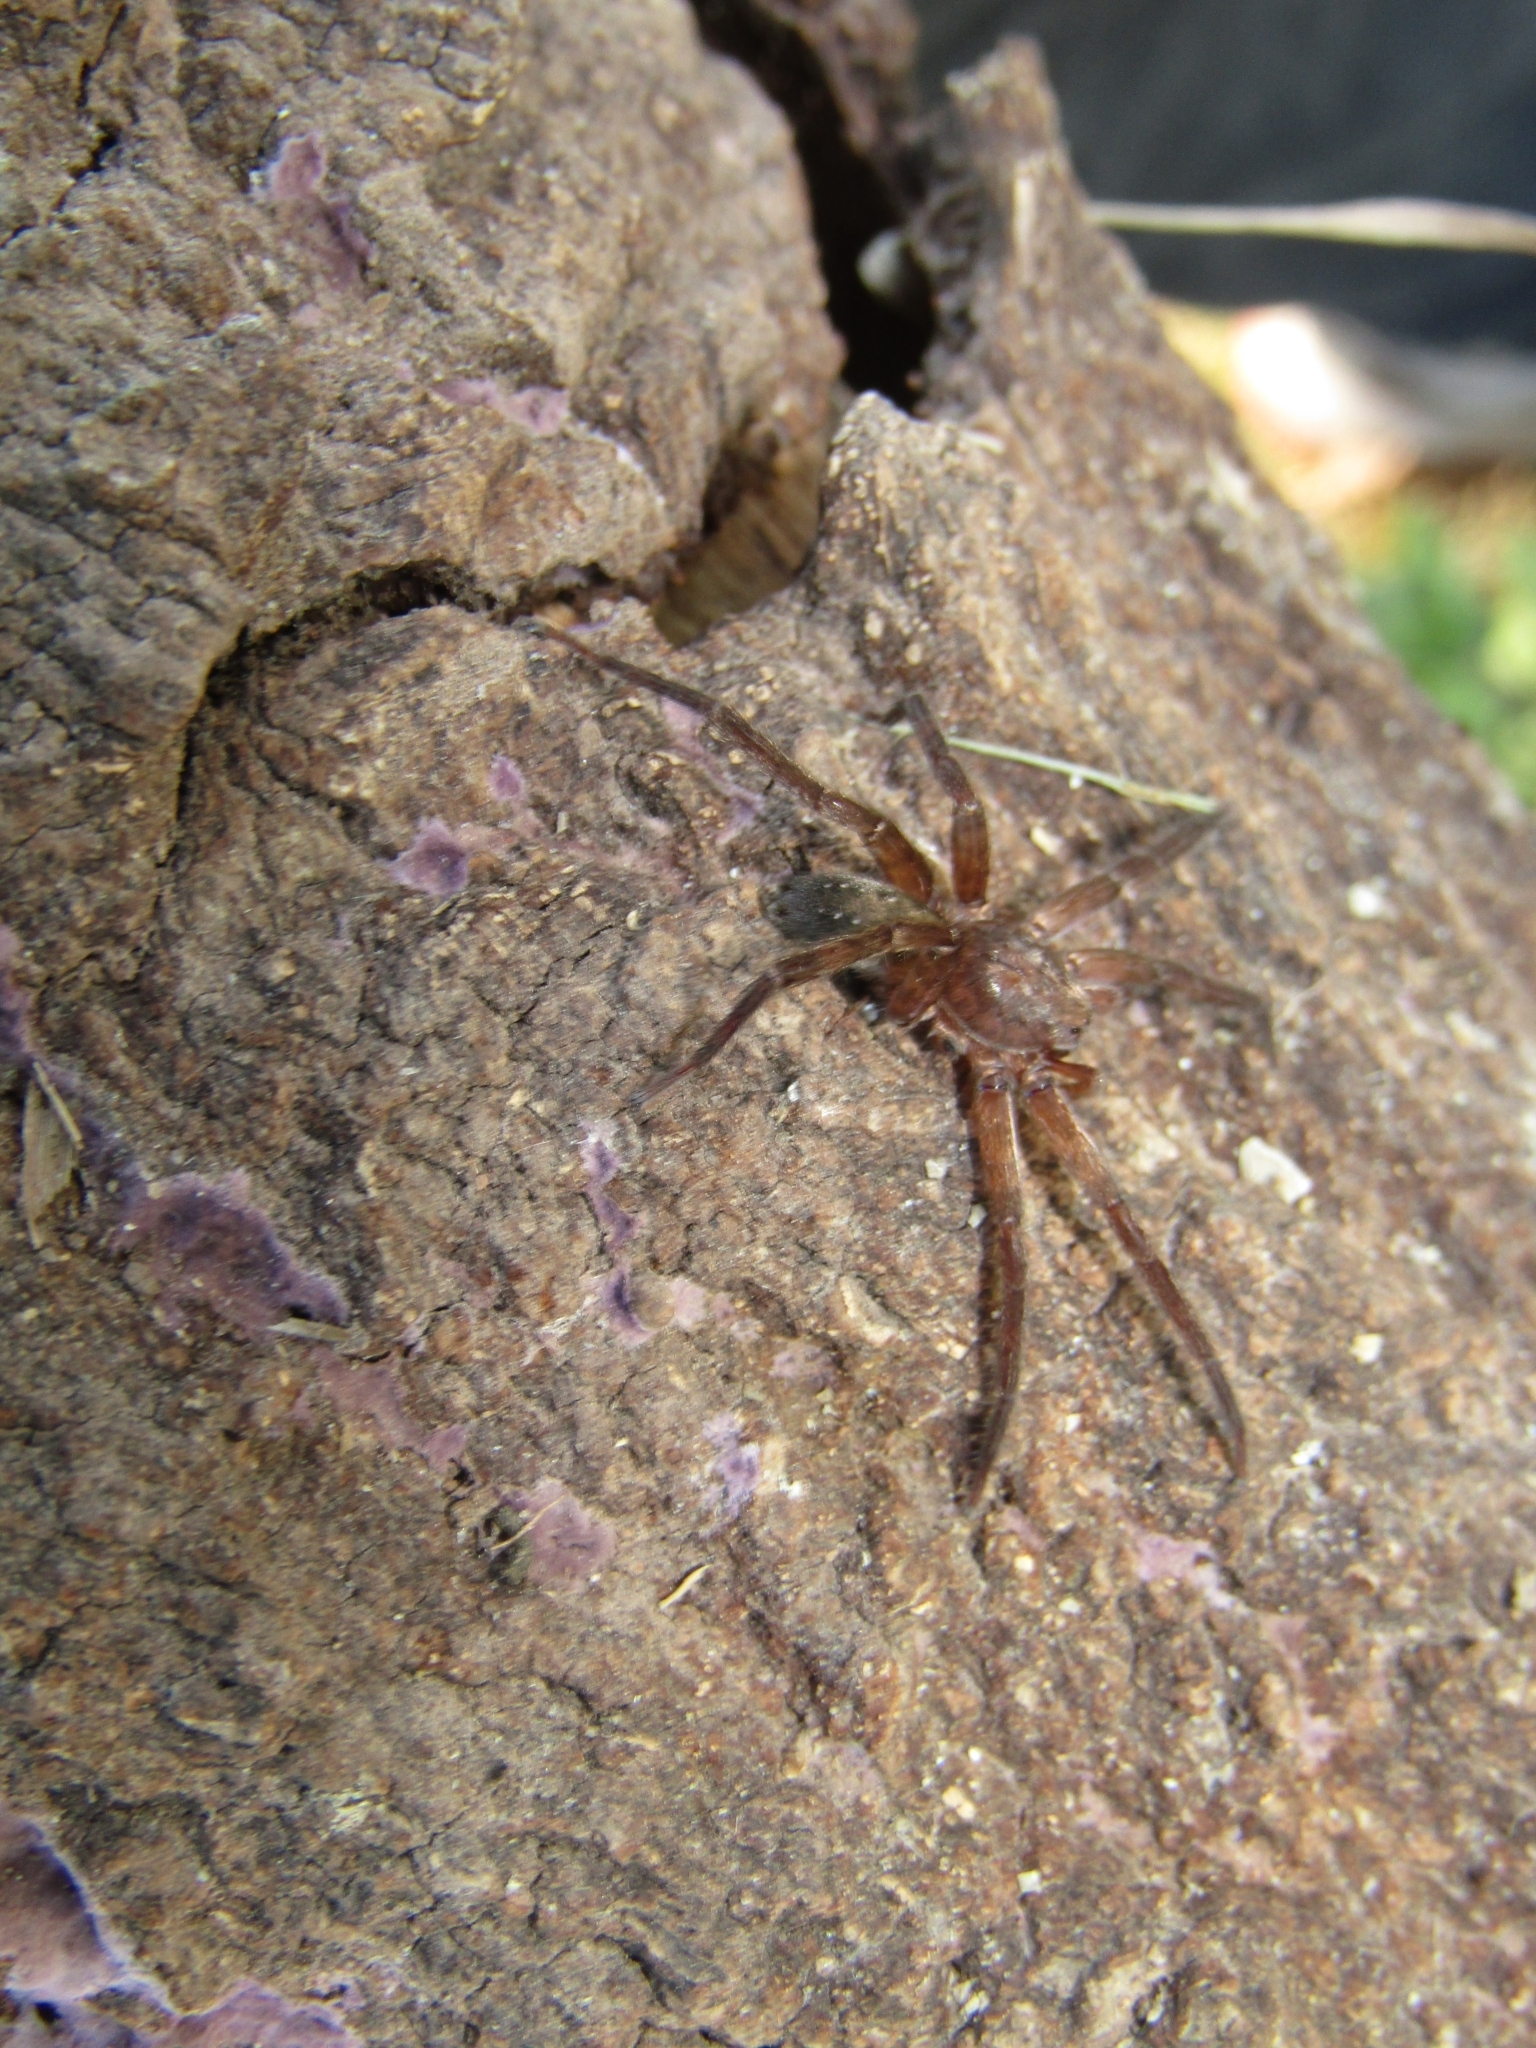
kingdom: Animalia
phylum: Arthropoda
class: Arachnida
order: Araneae
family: Ctenidae
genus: Asthenoctenus
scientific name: Asthenoctenus borellii
